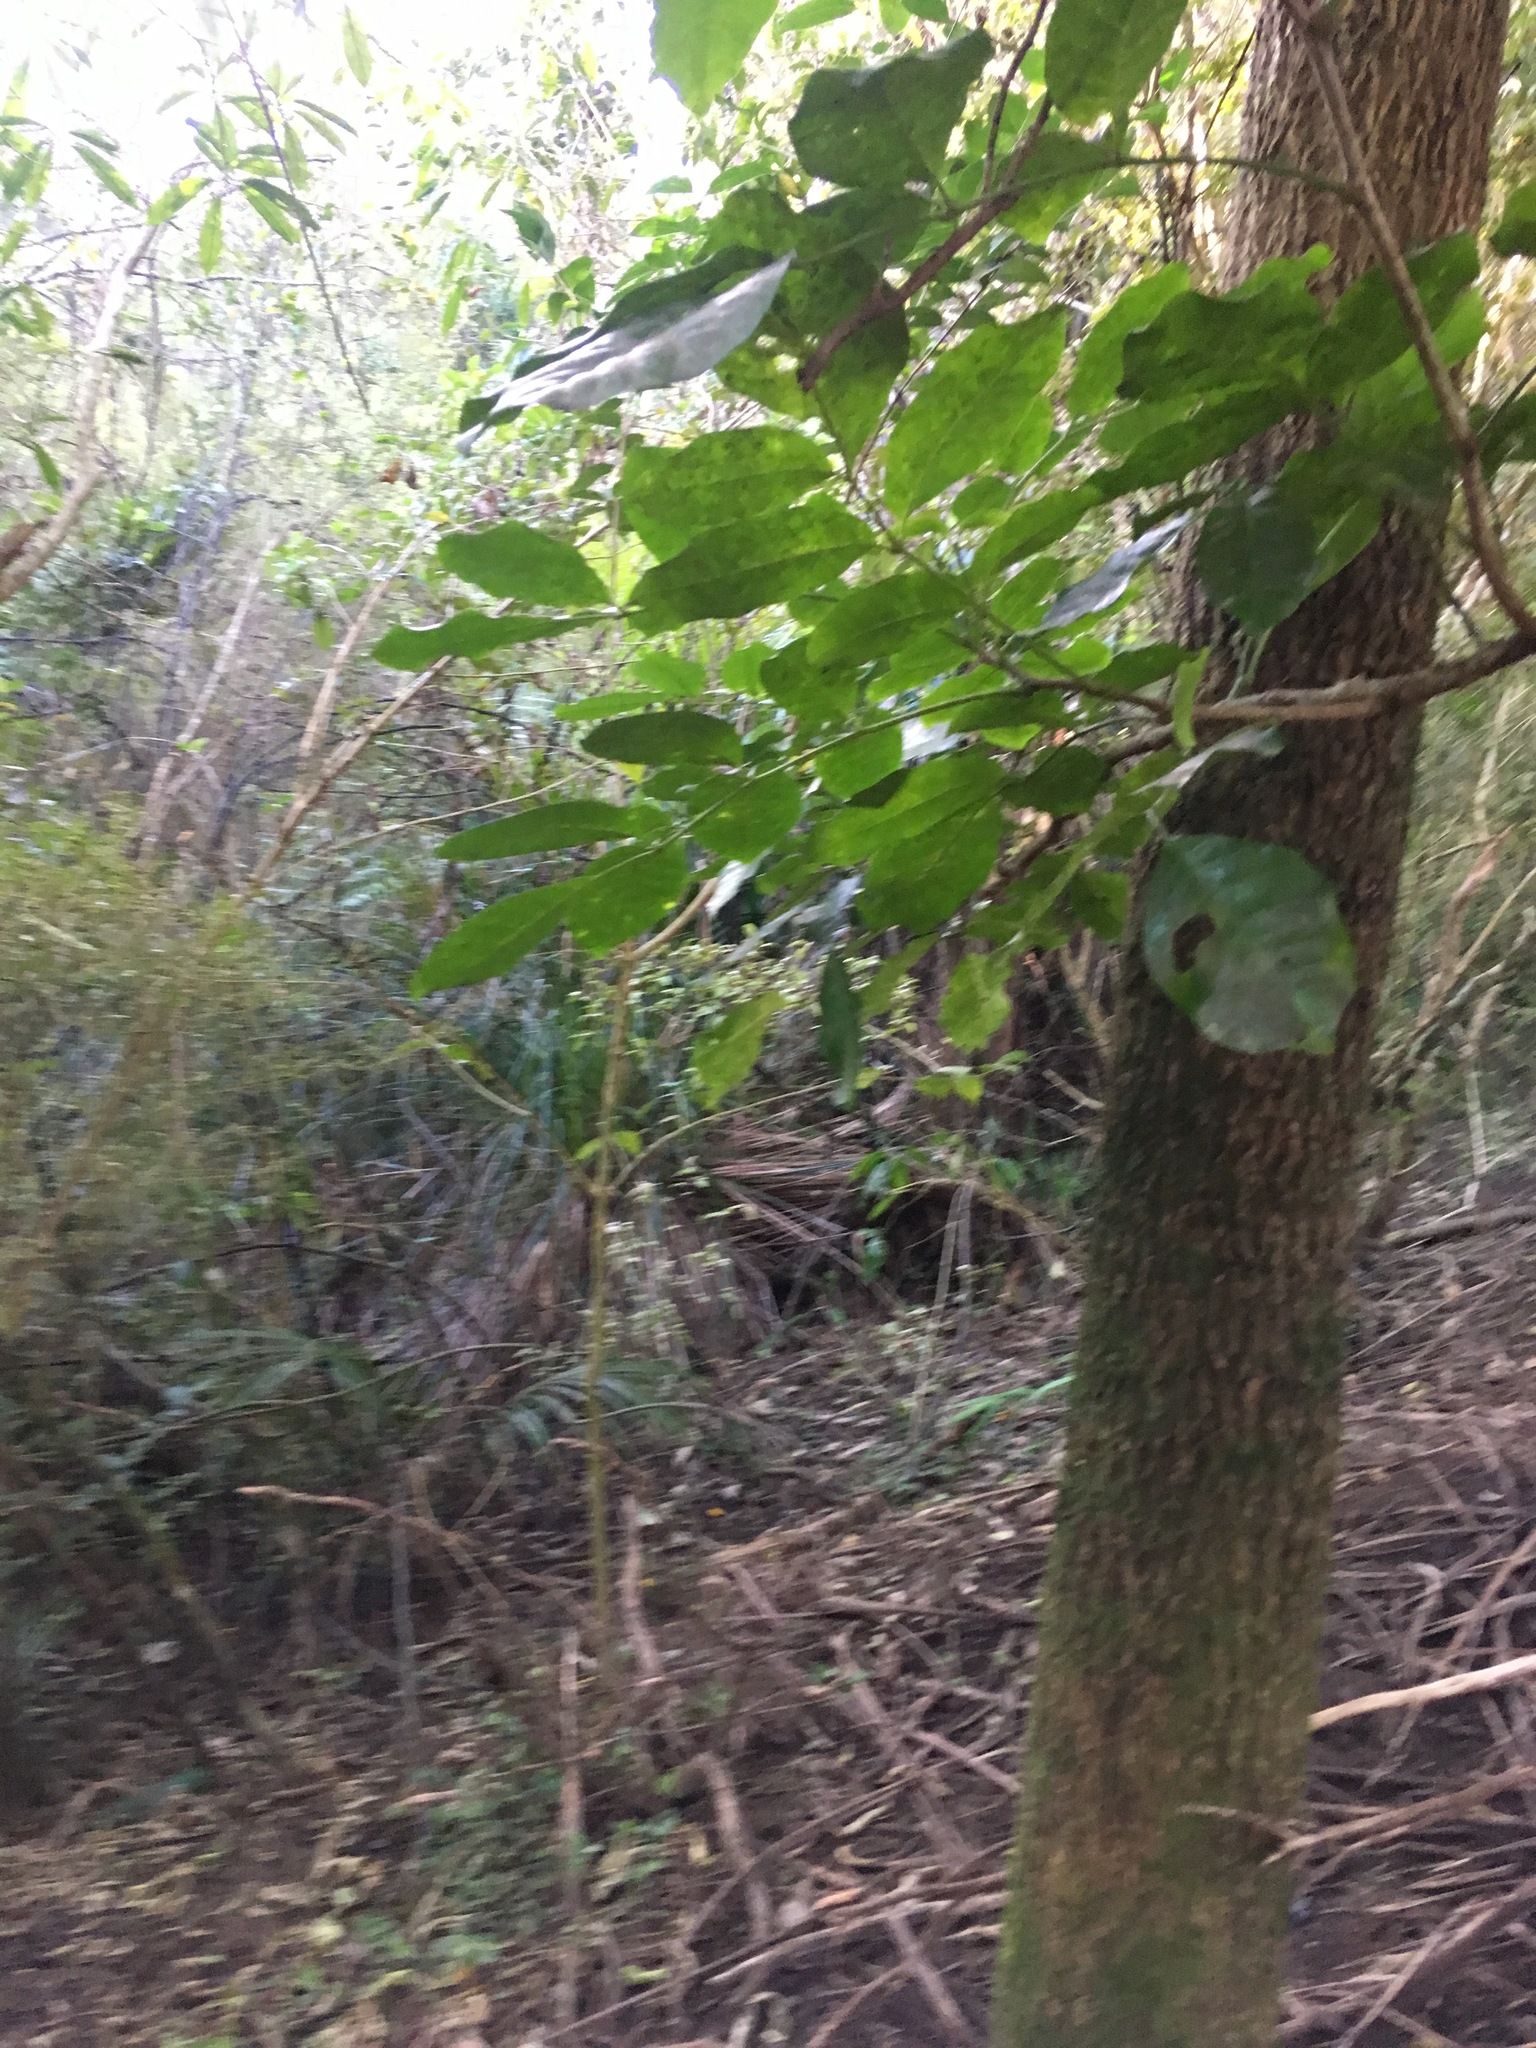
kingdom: Plantae
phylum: Tracheophyta
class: Magnoliopsida
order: Sapindales
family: Meliaceae
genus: Didymocheton
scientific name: Didymocheton spectabilis
